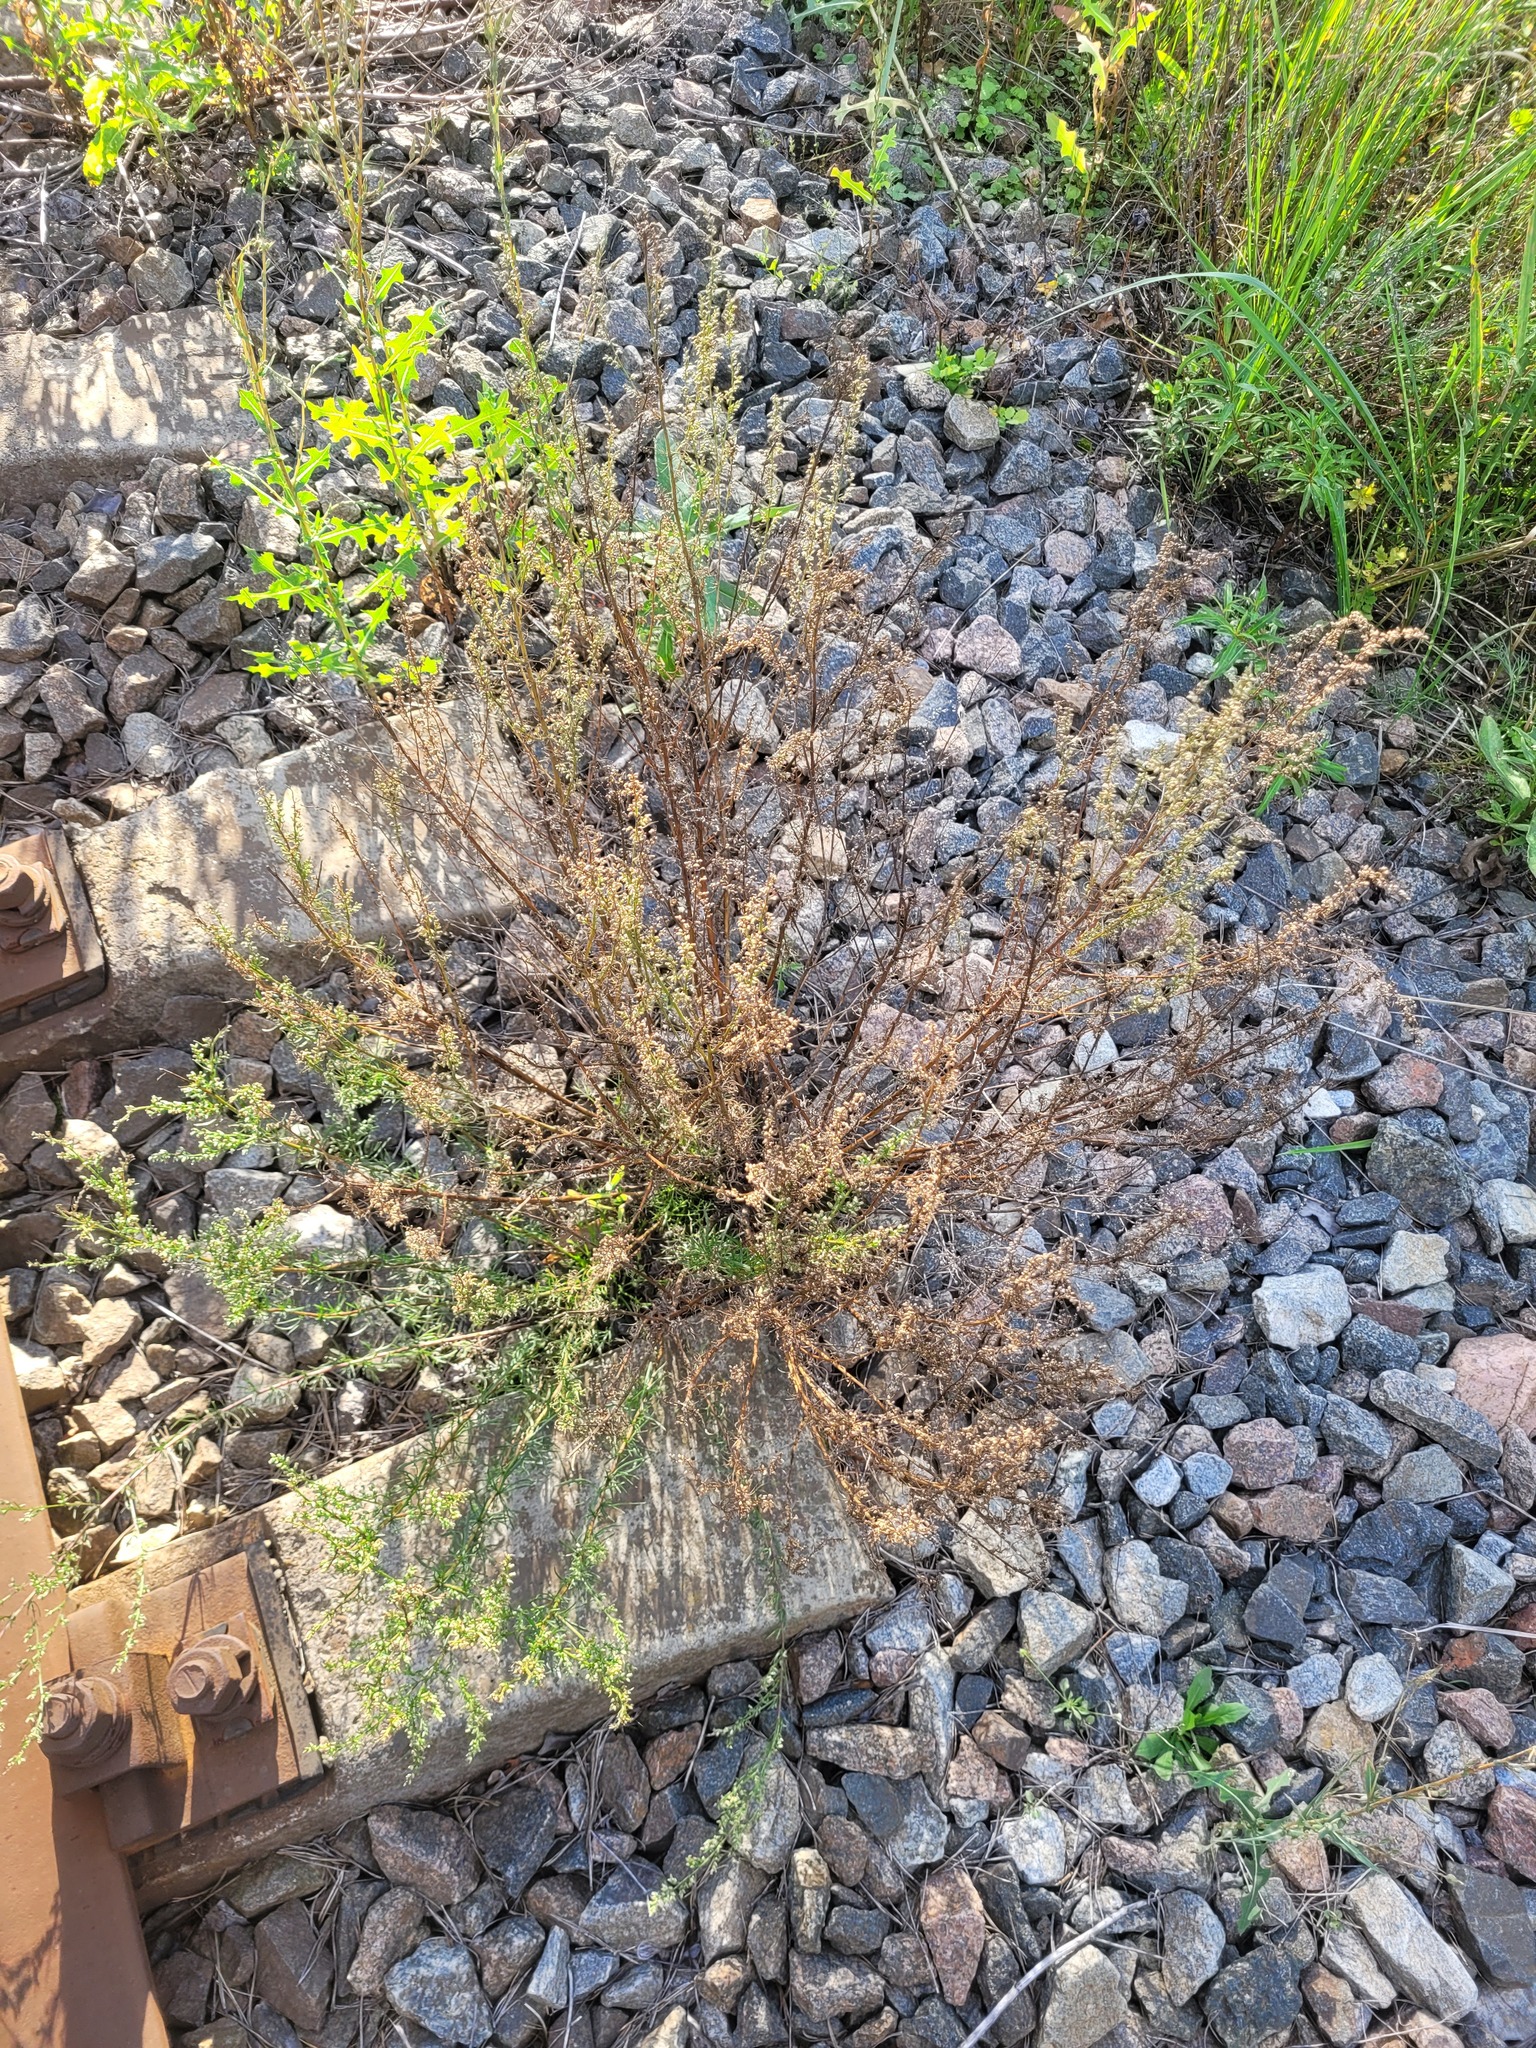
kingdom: Plantae
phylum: Tracheophyta
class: Magnoliopsida
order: Asterales
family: Asteraceae
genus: Artemisia
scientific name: Artemisia campestris
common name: Field wormwood
